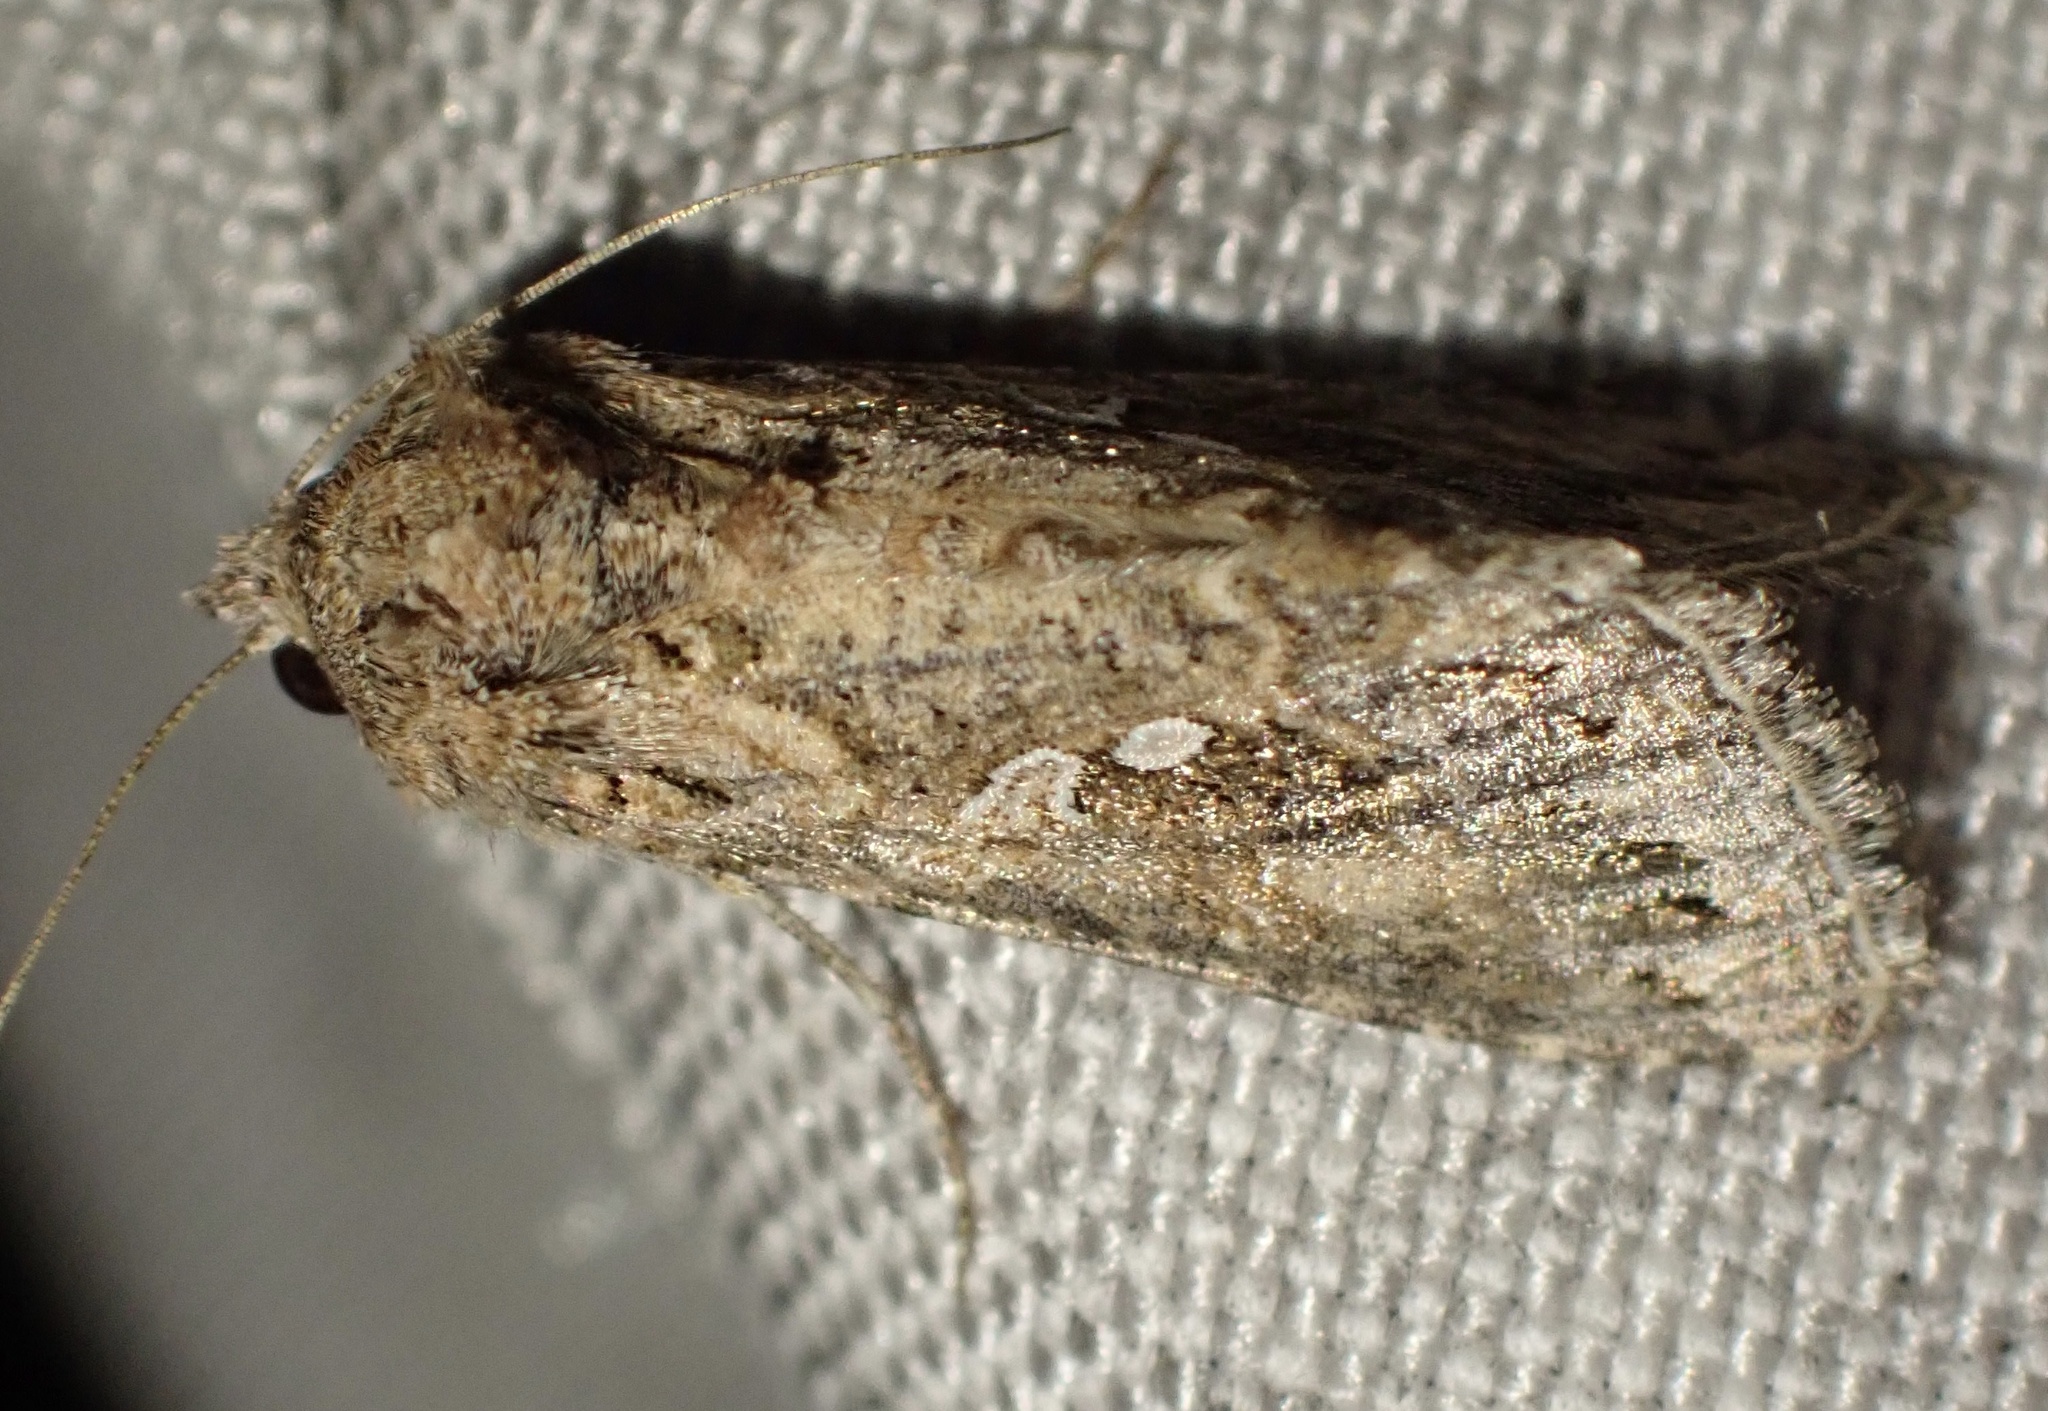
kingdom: Animalia
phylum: Arthropoda
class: Insecta
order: Lepidoptera
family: Noctuidae
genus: Trichoplusia
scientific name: Trichoplusia ni
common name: Ni moth
